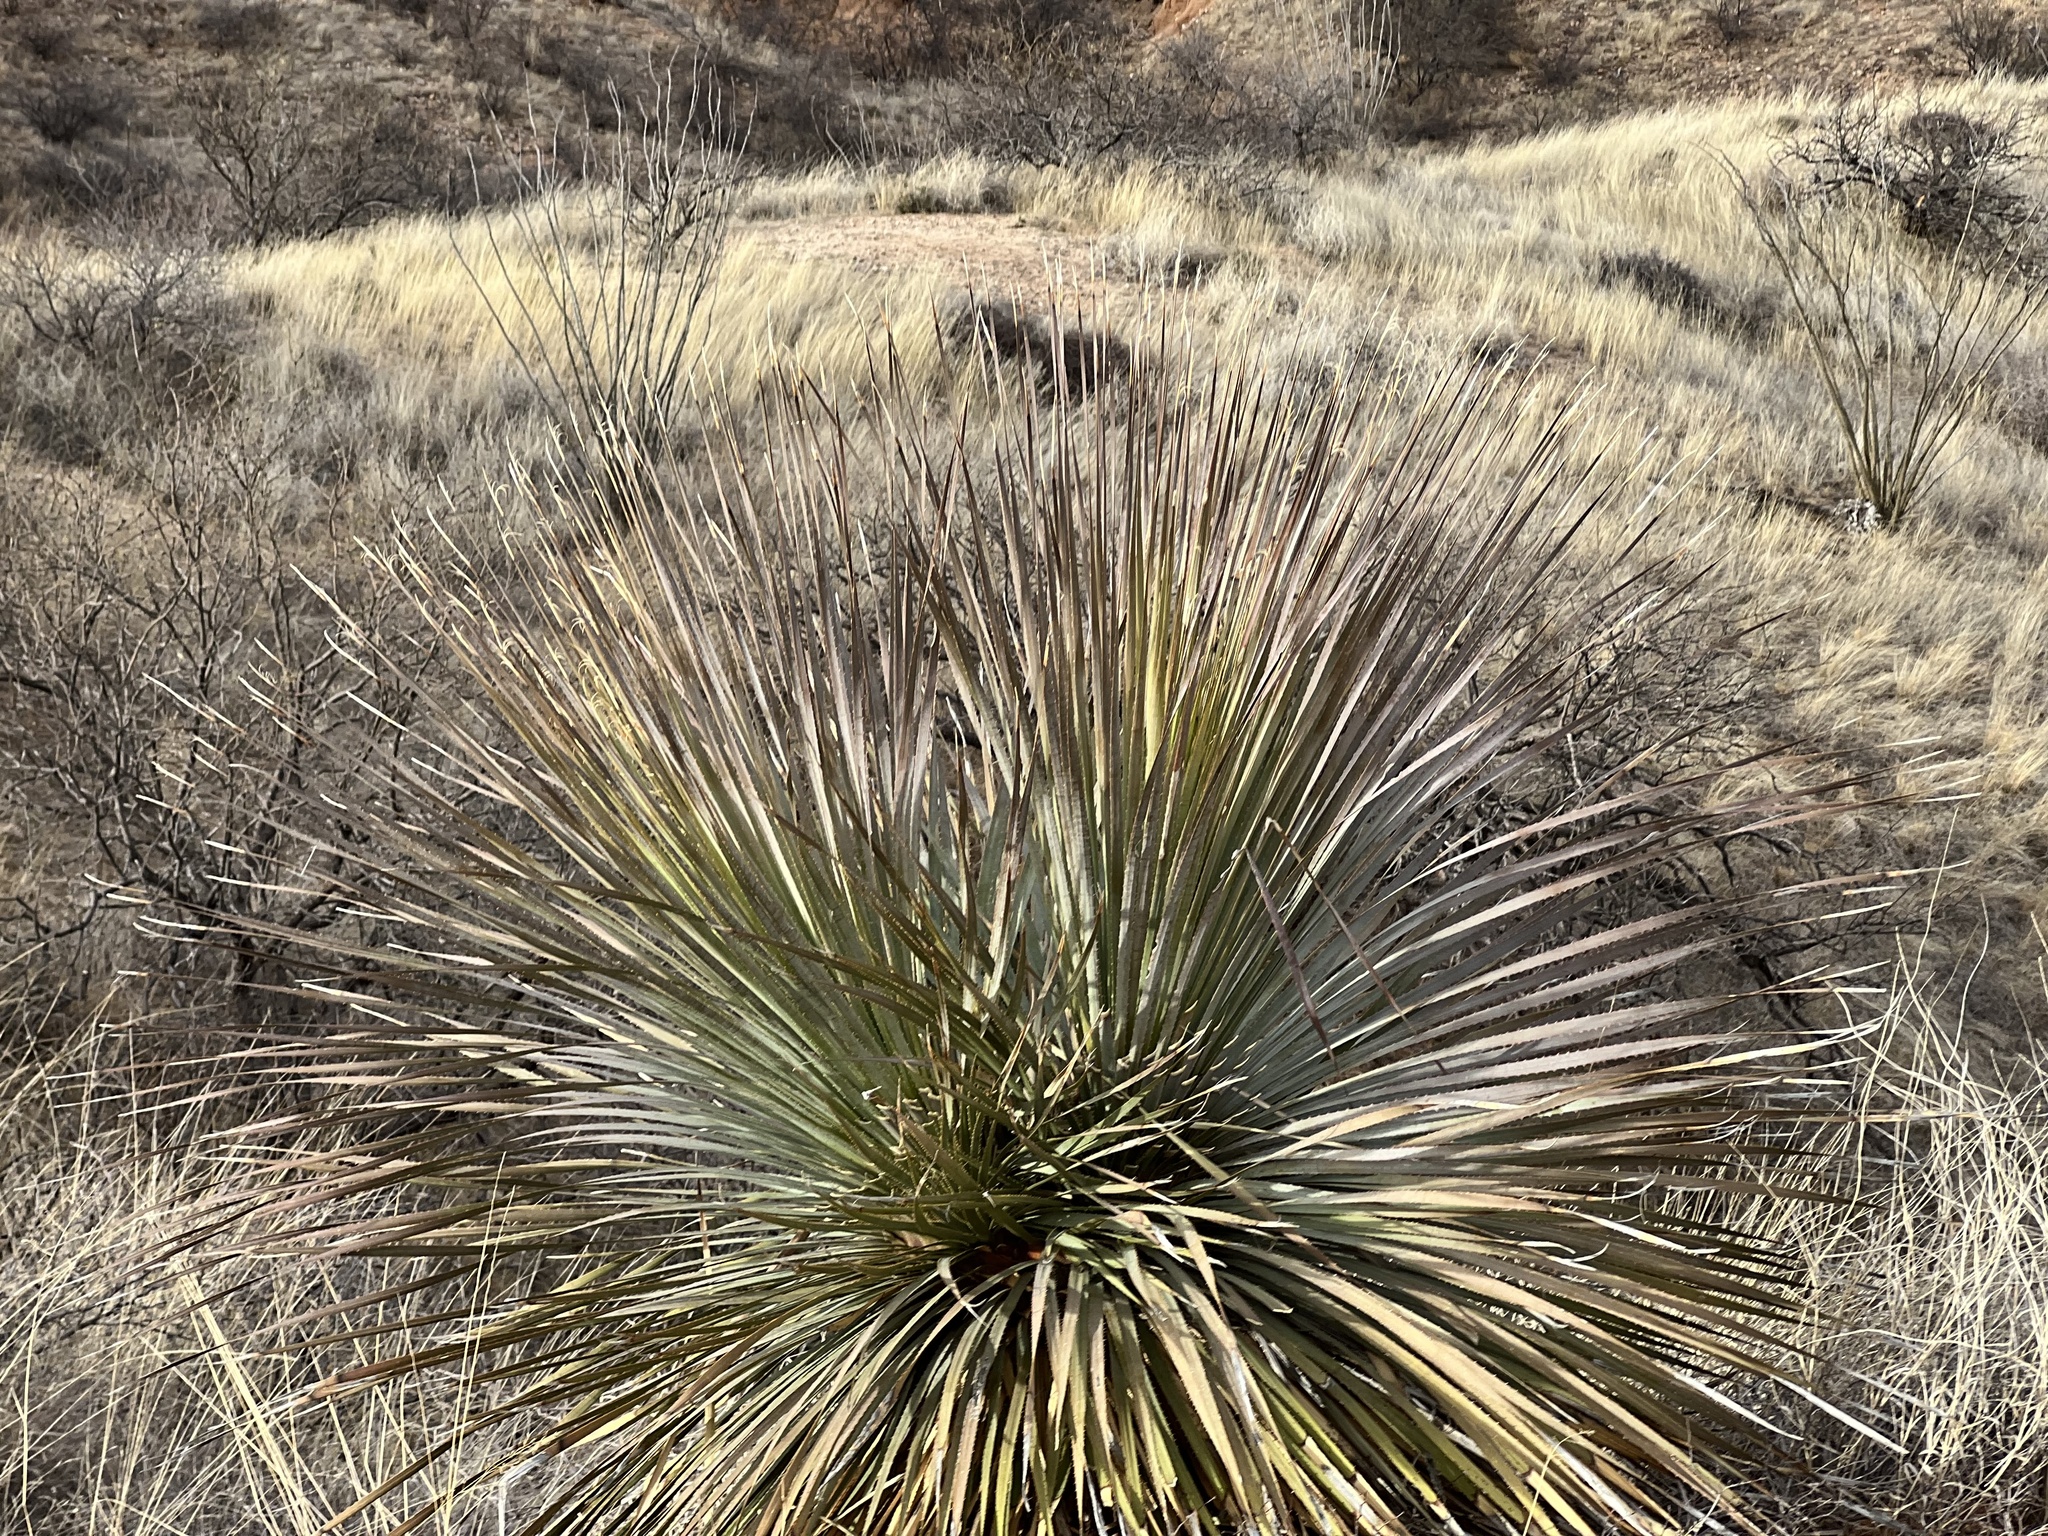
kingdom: Plantae
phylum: Tracheophyta
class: Liliopsida
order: Asparagales
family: Asparagaceae
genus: Dasylirion
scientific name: Dasylirion wheeleri
